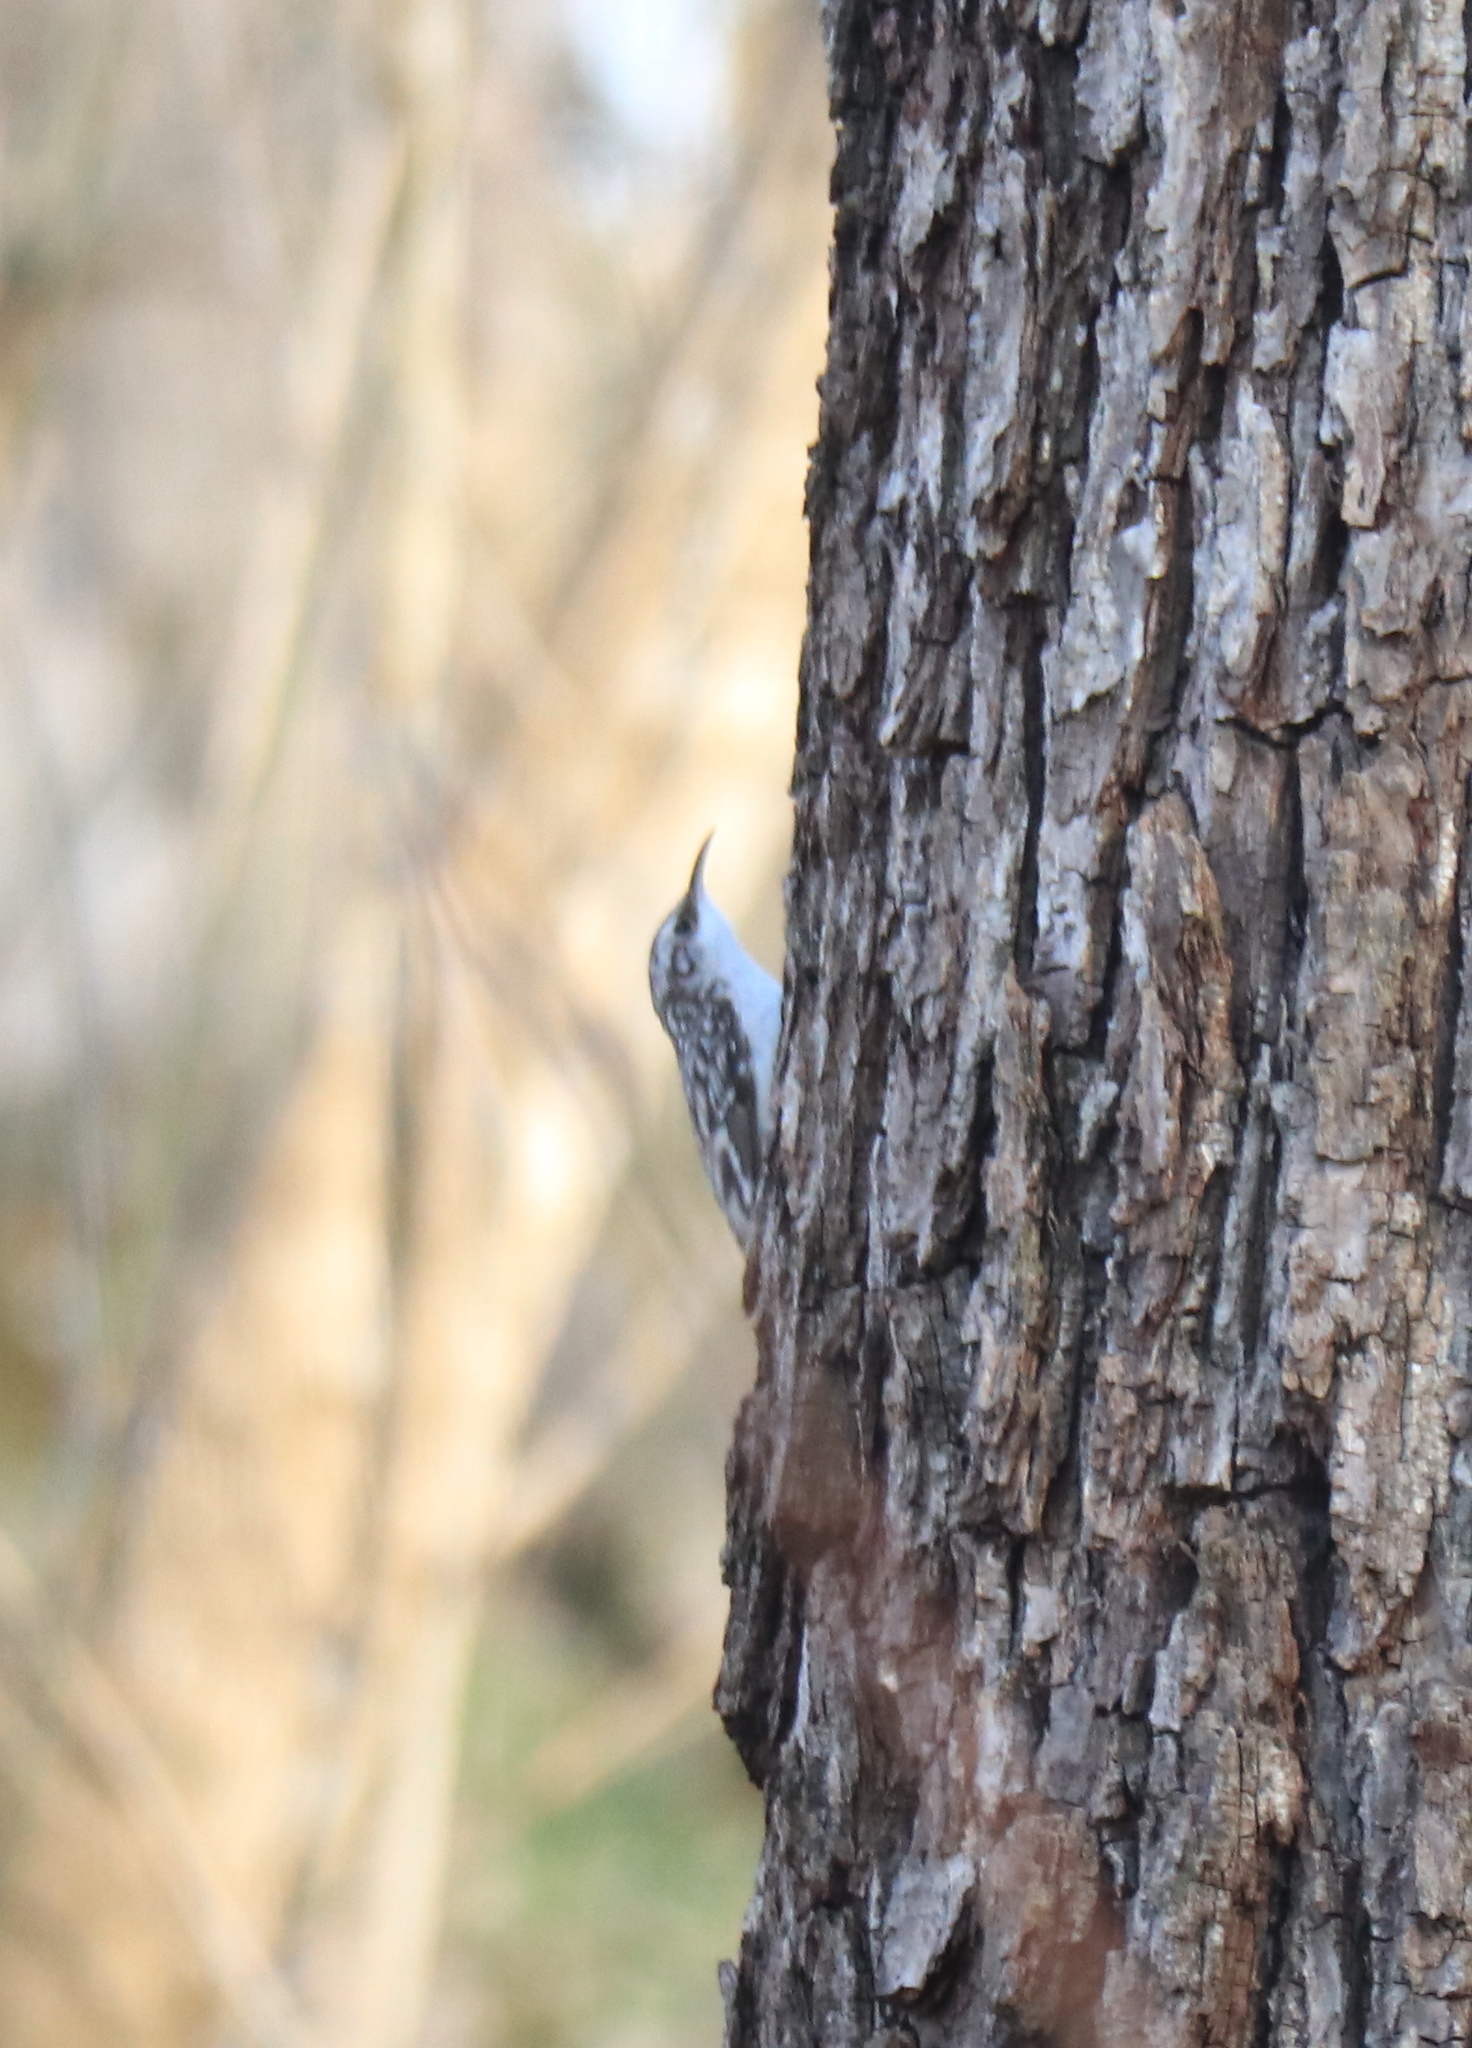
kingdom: Animalia
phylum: Chordata
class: Aves
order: Passeriformes
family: Certhiidae
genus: Certhia
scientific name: Certhia americana
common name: Brown creeper
